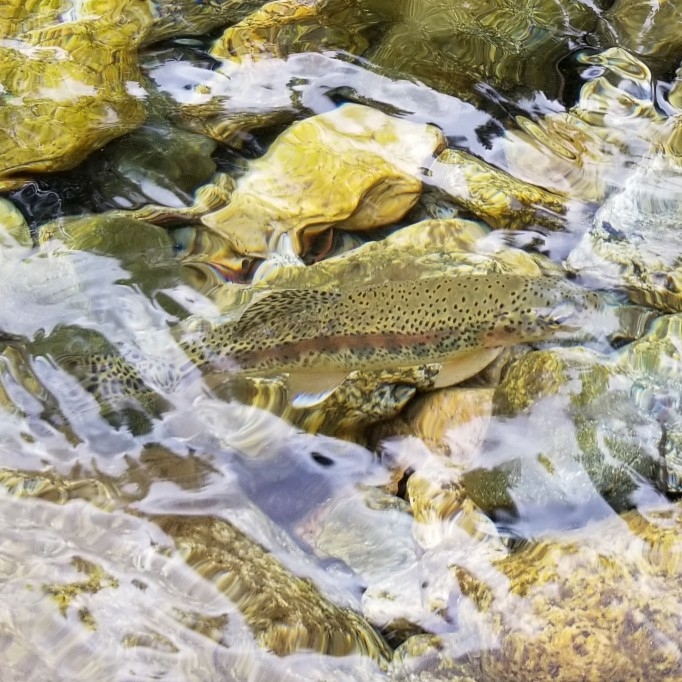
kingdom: Animalia
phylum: Chordata
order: Salmoniformes
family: Salmonidae
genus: Oncorhynchus
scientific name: Oncorhynchus mykiss
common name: Rainbow trout
